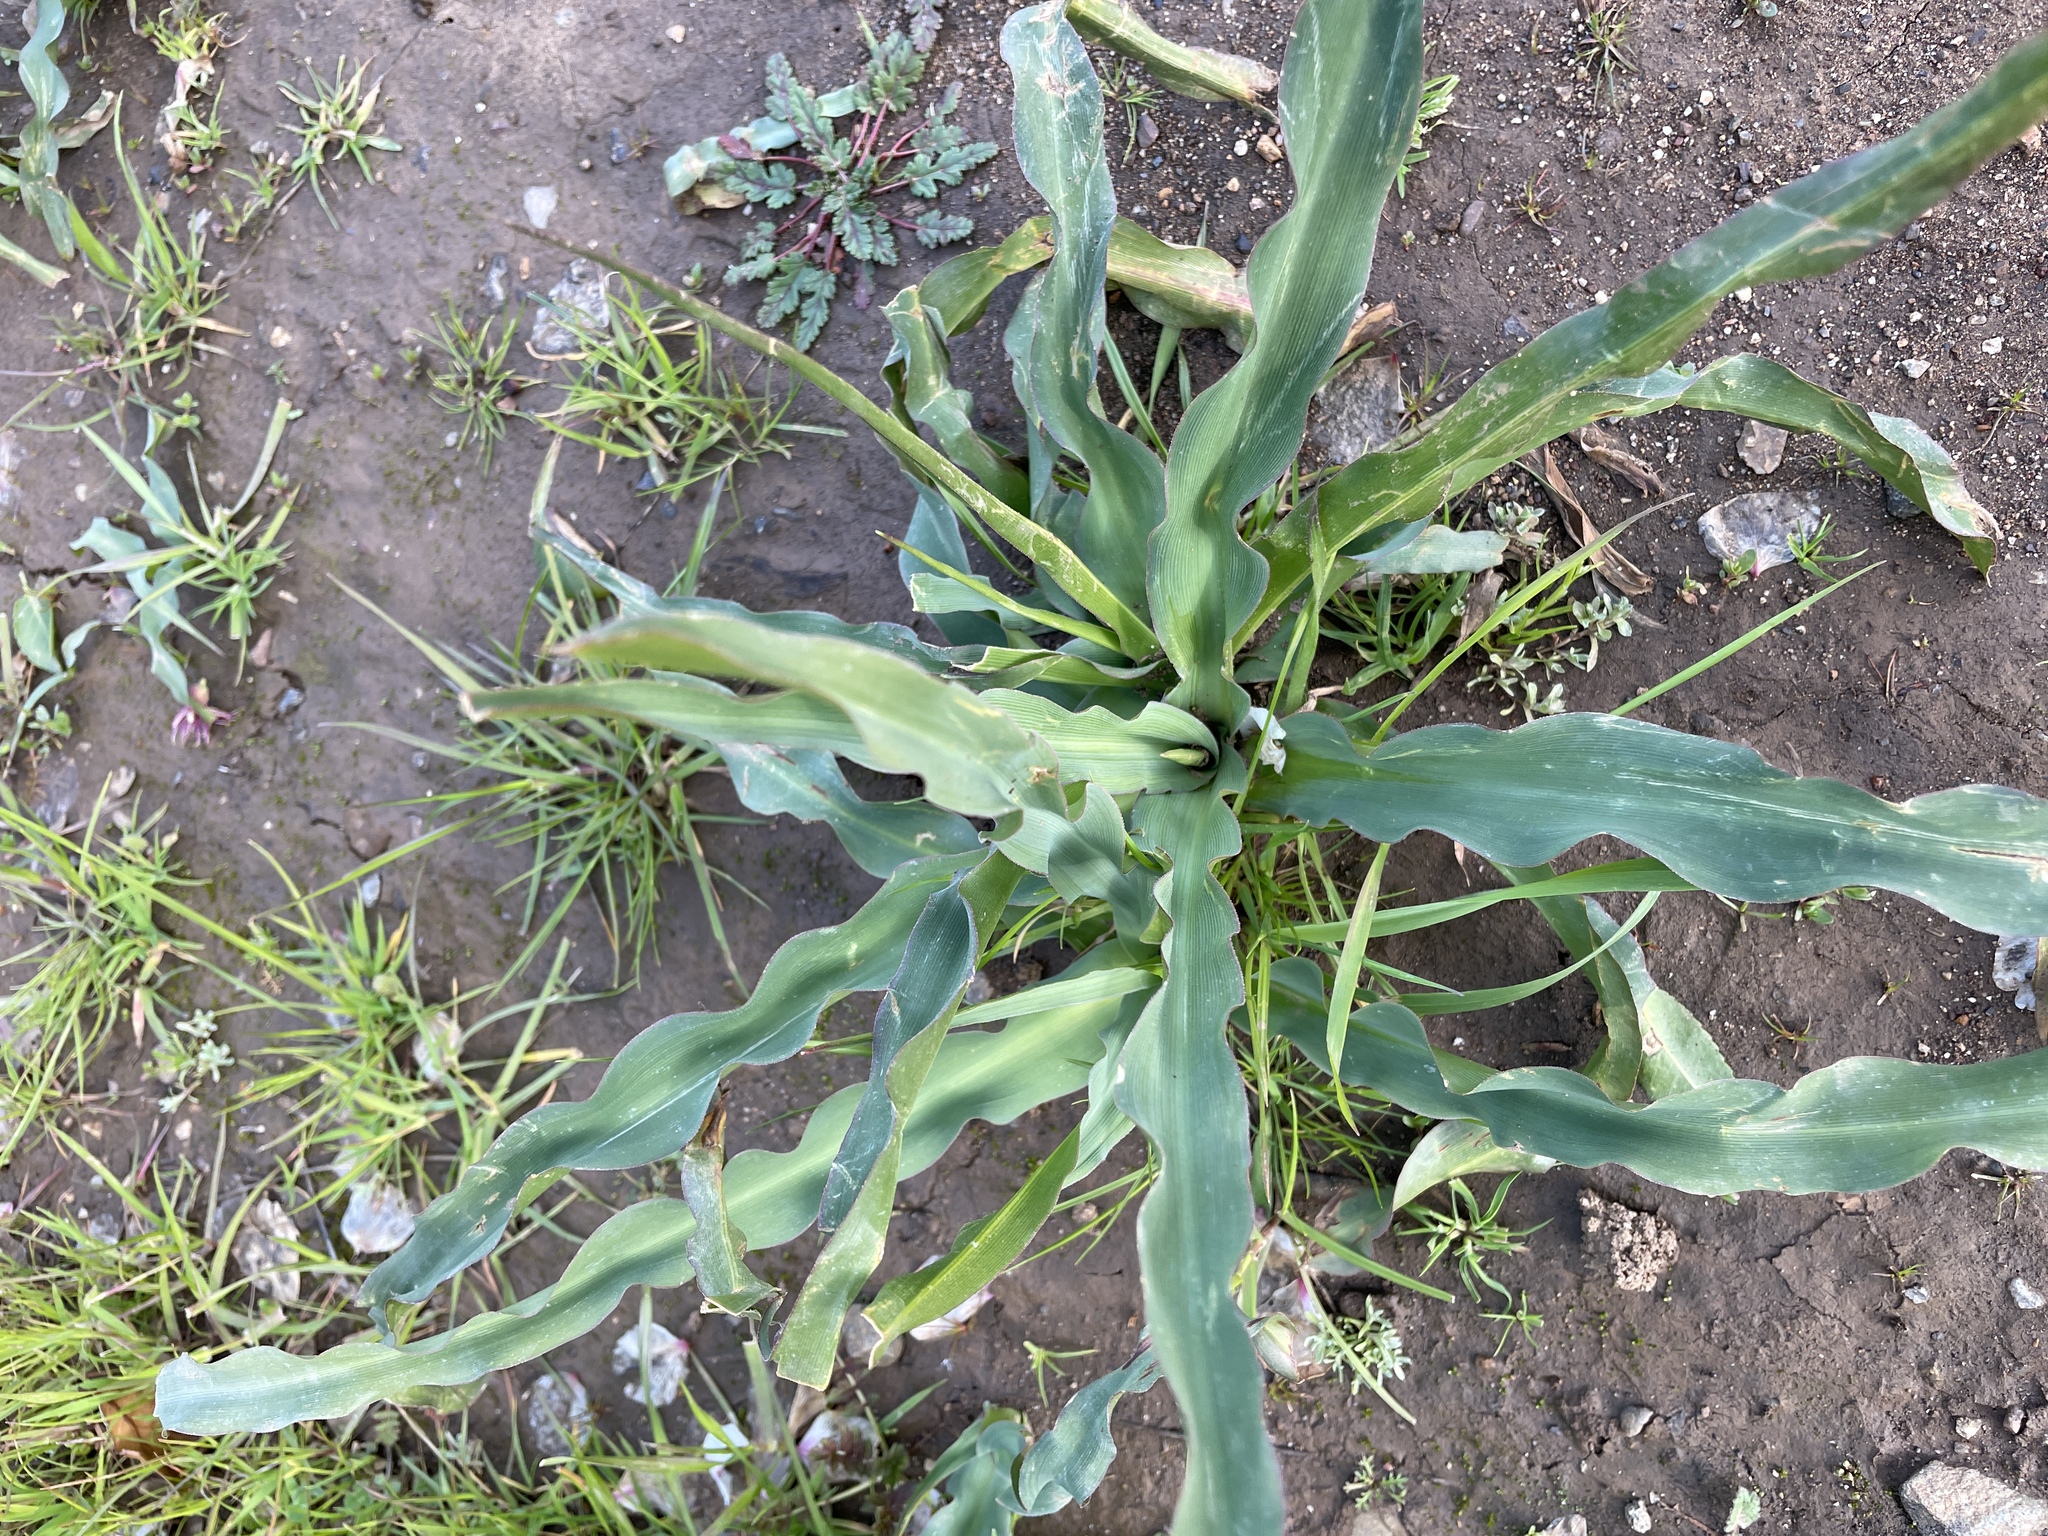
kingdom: Plantae
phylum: Tracheophyta
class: Liliopsida
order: Asparagales
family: Asparagaceae
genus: Chlorogalum
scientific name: Chlorogalum pomeridianum
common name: Amole
